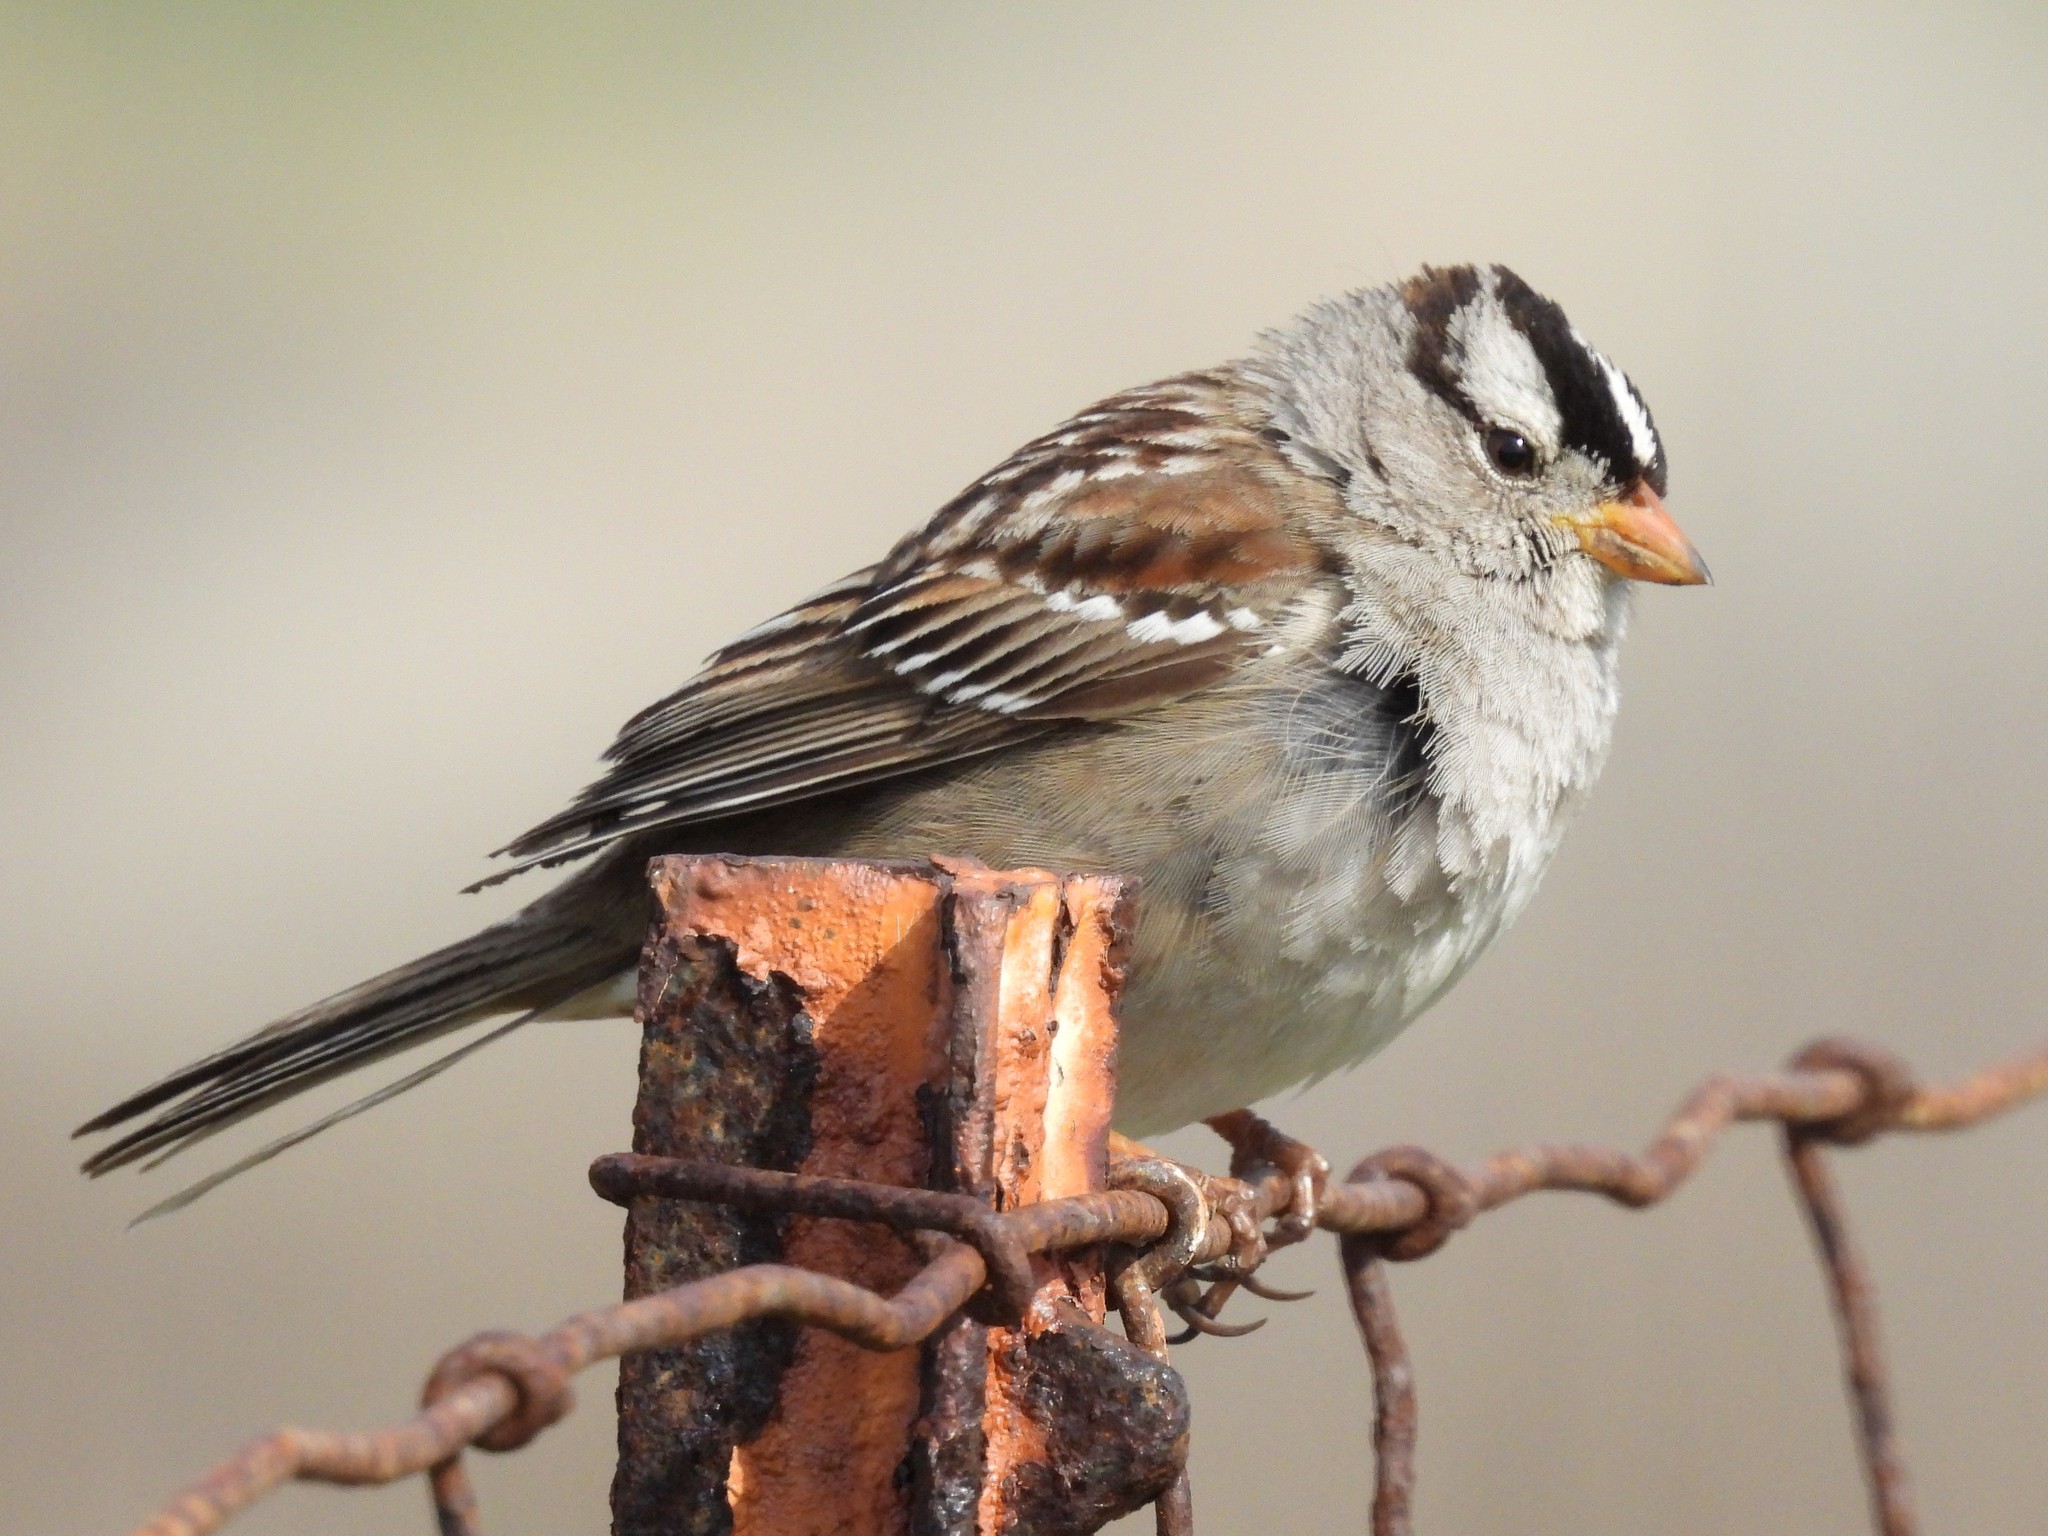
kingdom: Animalia
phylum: Chordata
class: Aves
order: Passeriformes
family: Passerellidae
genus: Zonotrichia
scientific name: Zonotrichia leucophrys
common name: White-crowned sparrow
